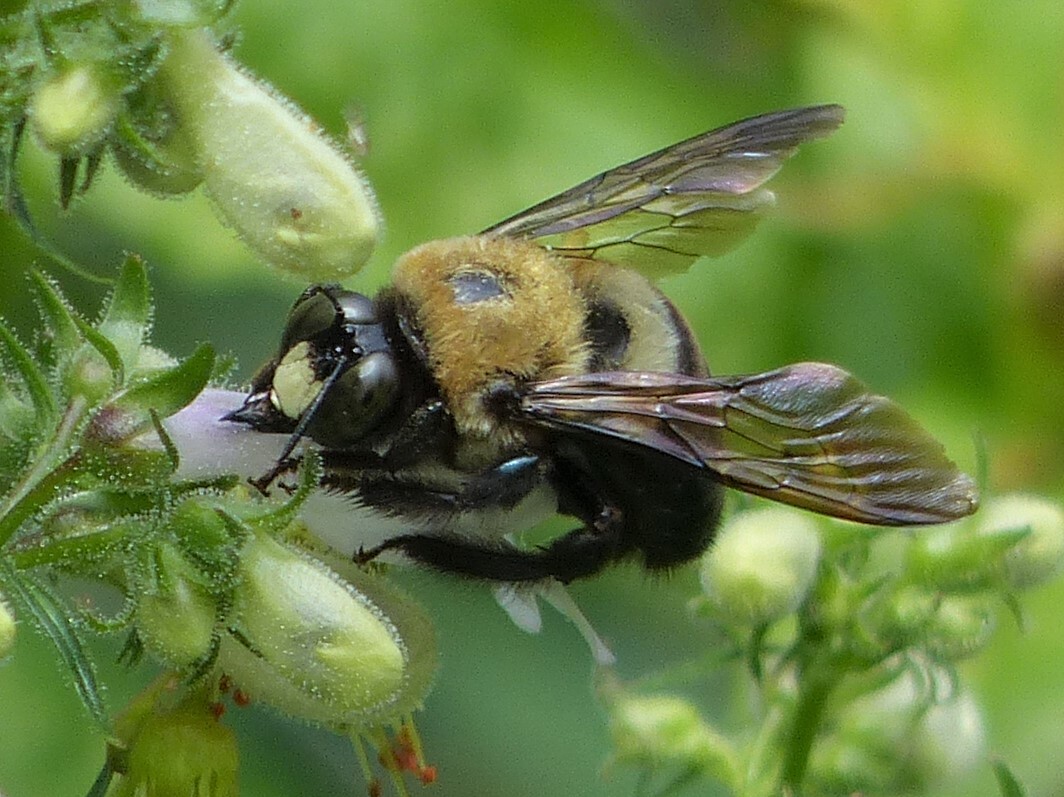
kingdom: Animalia
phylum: Arthropoda
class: Insecta
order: Hymenoptera
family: Apidae
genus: Xylocopa
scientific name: Xylocopa virginica
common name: Carpenter bee
